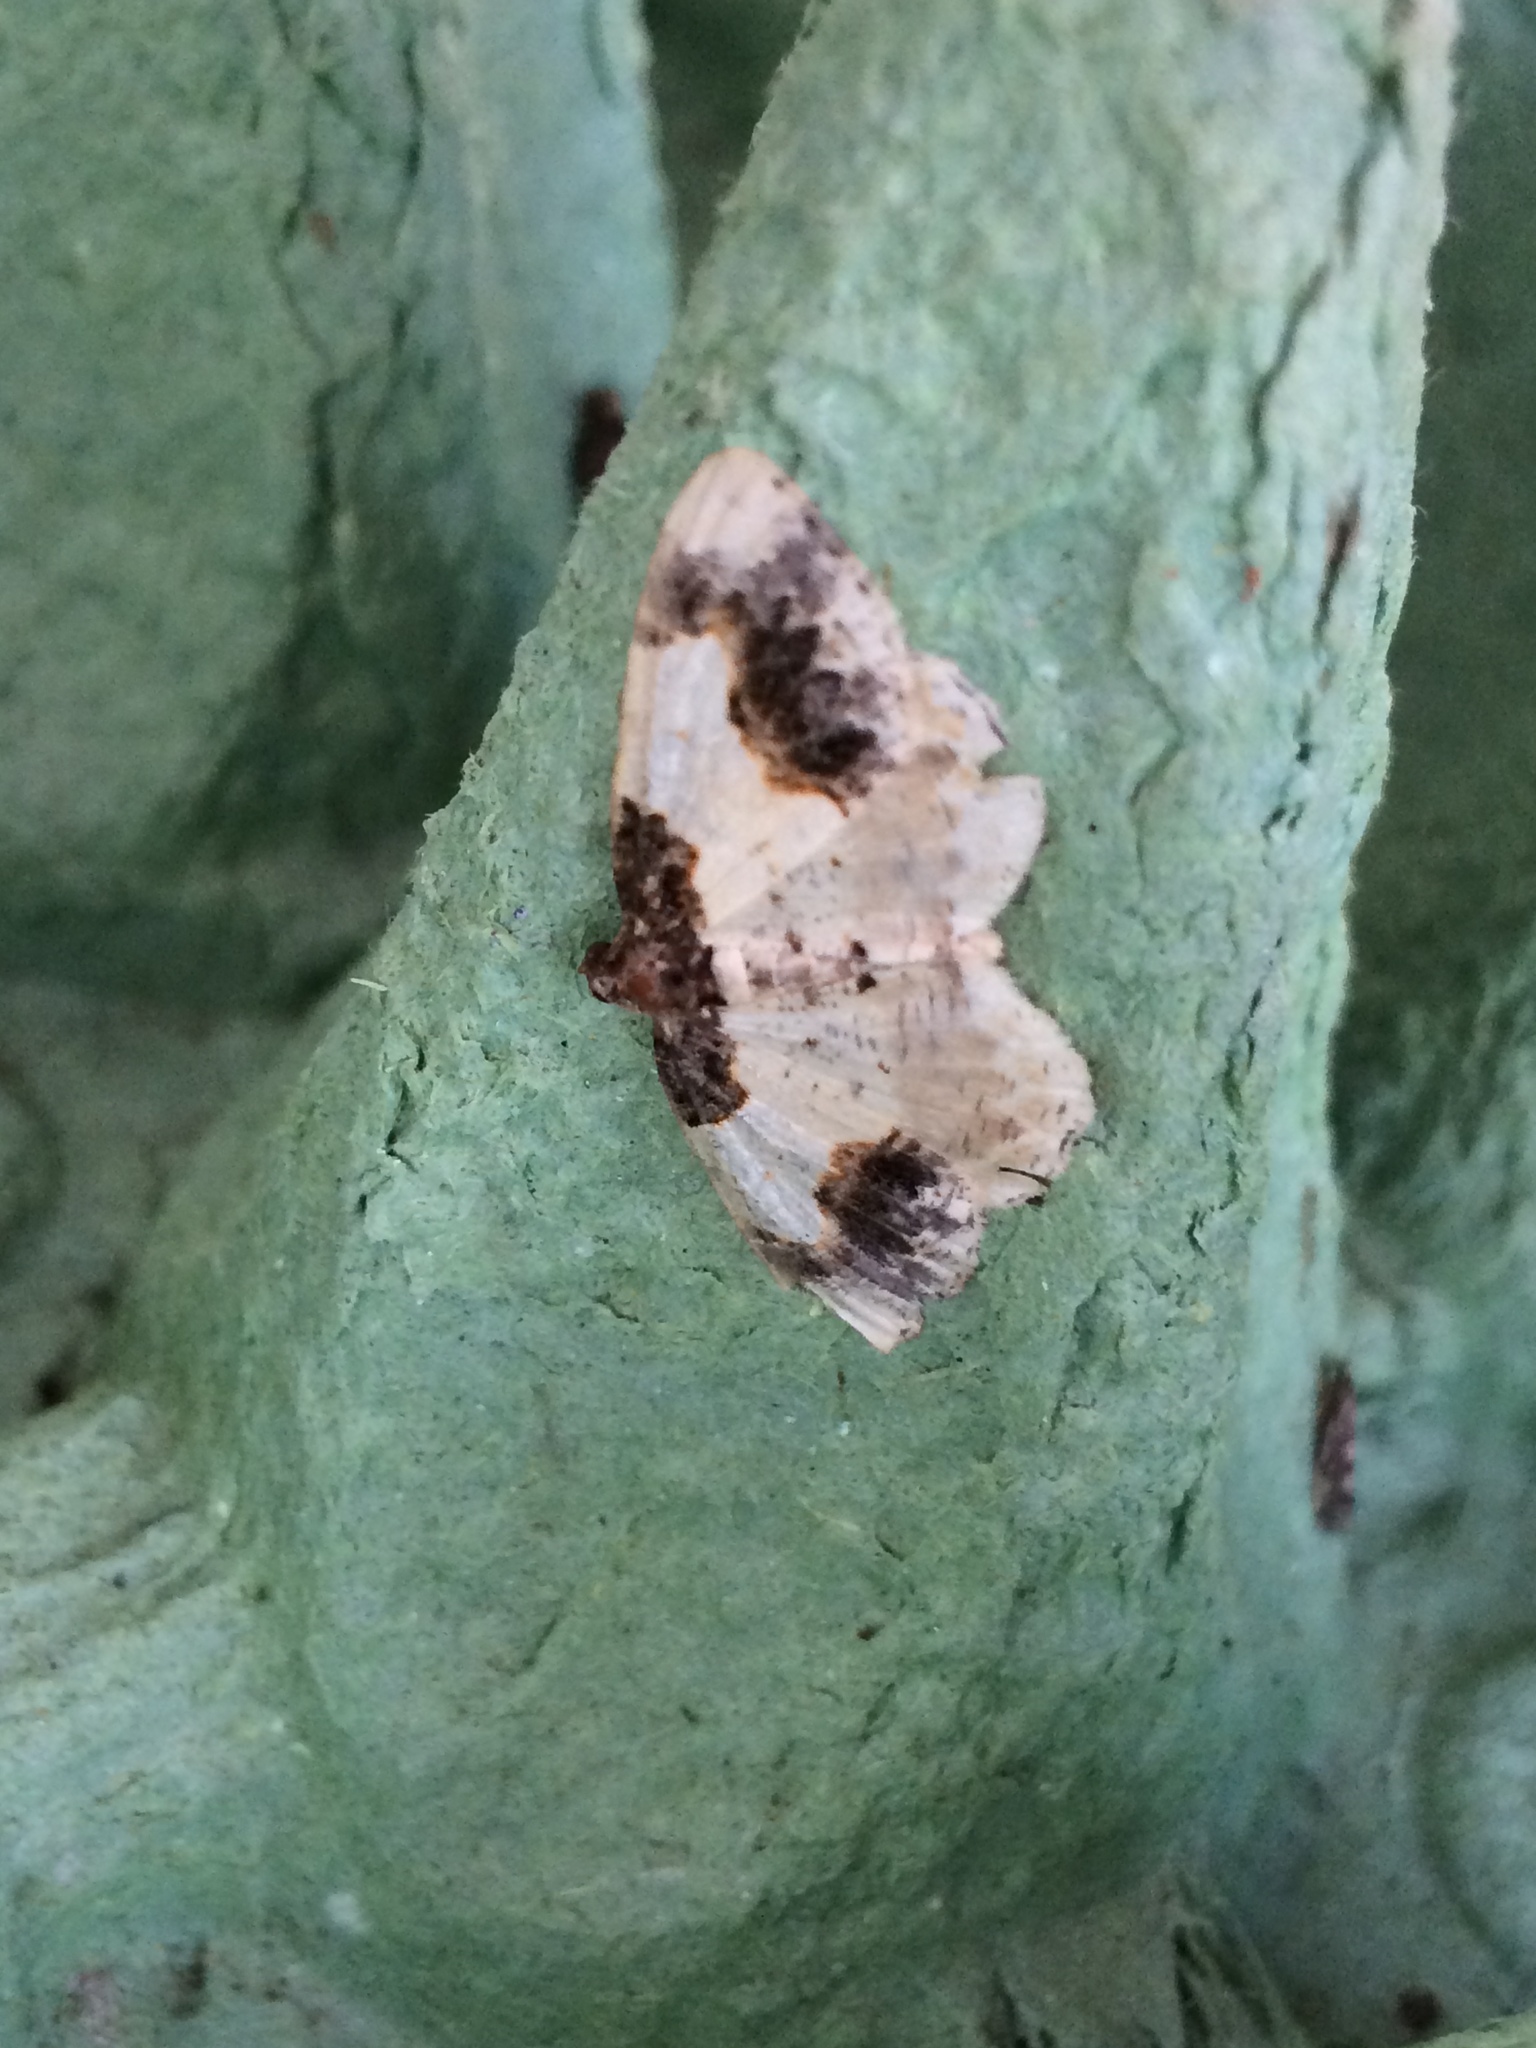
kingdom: Animalia
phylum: Arthropoda
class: Insecta
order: Lepidoptera
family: Geometridae
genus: Ligdia
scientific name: Ligdia adustata
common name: Scorched carpet
